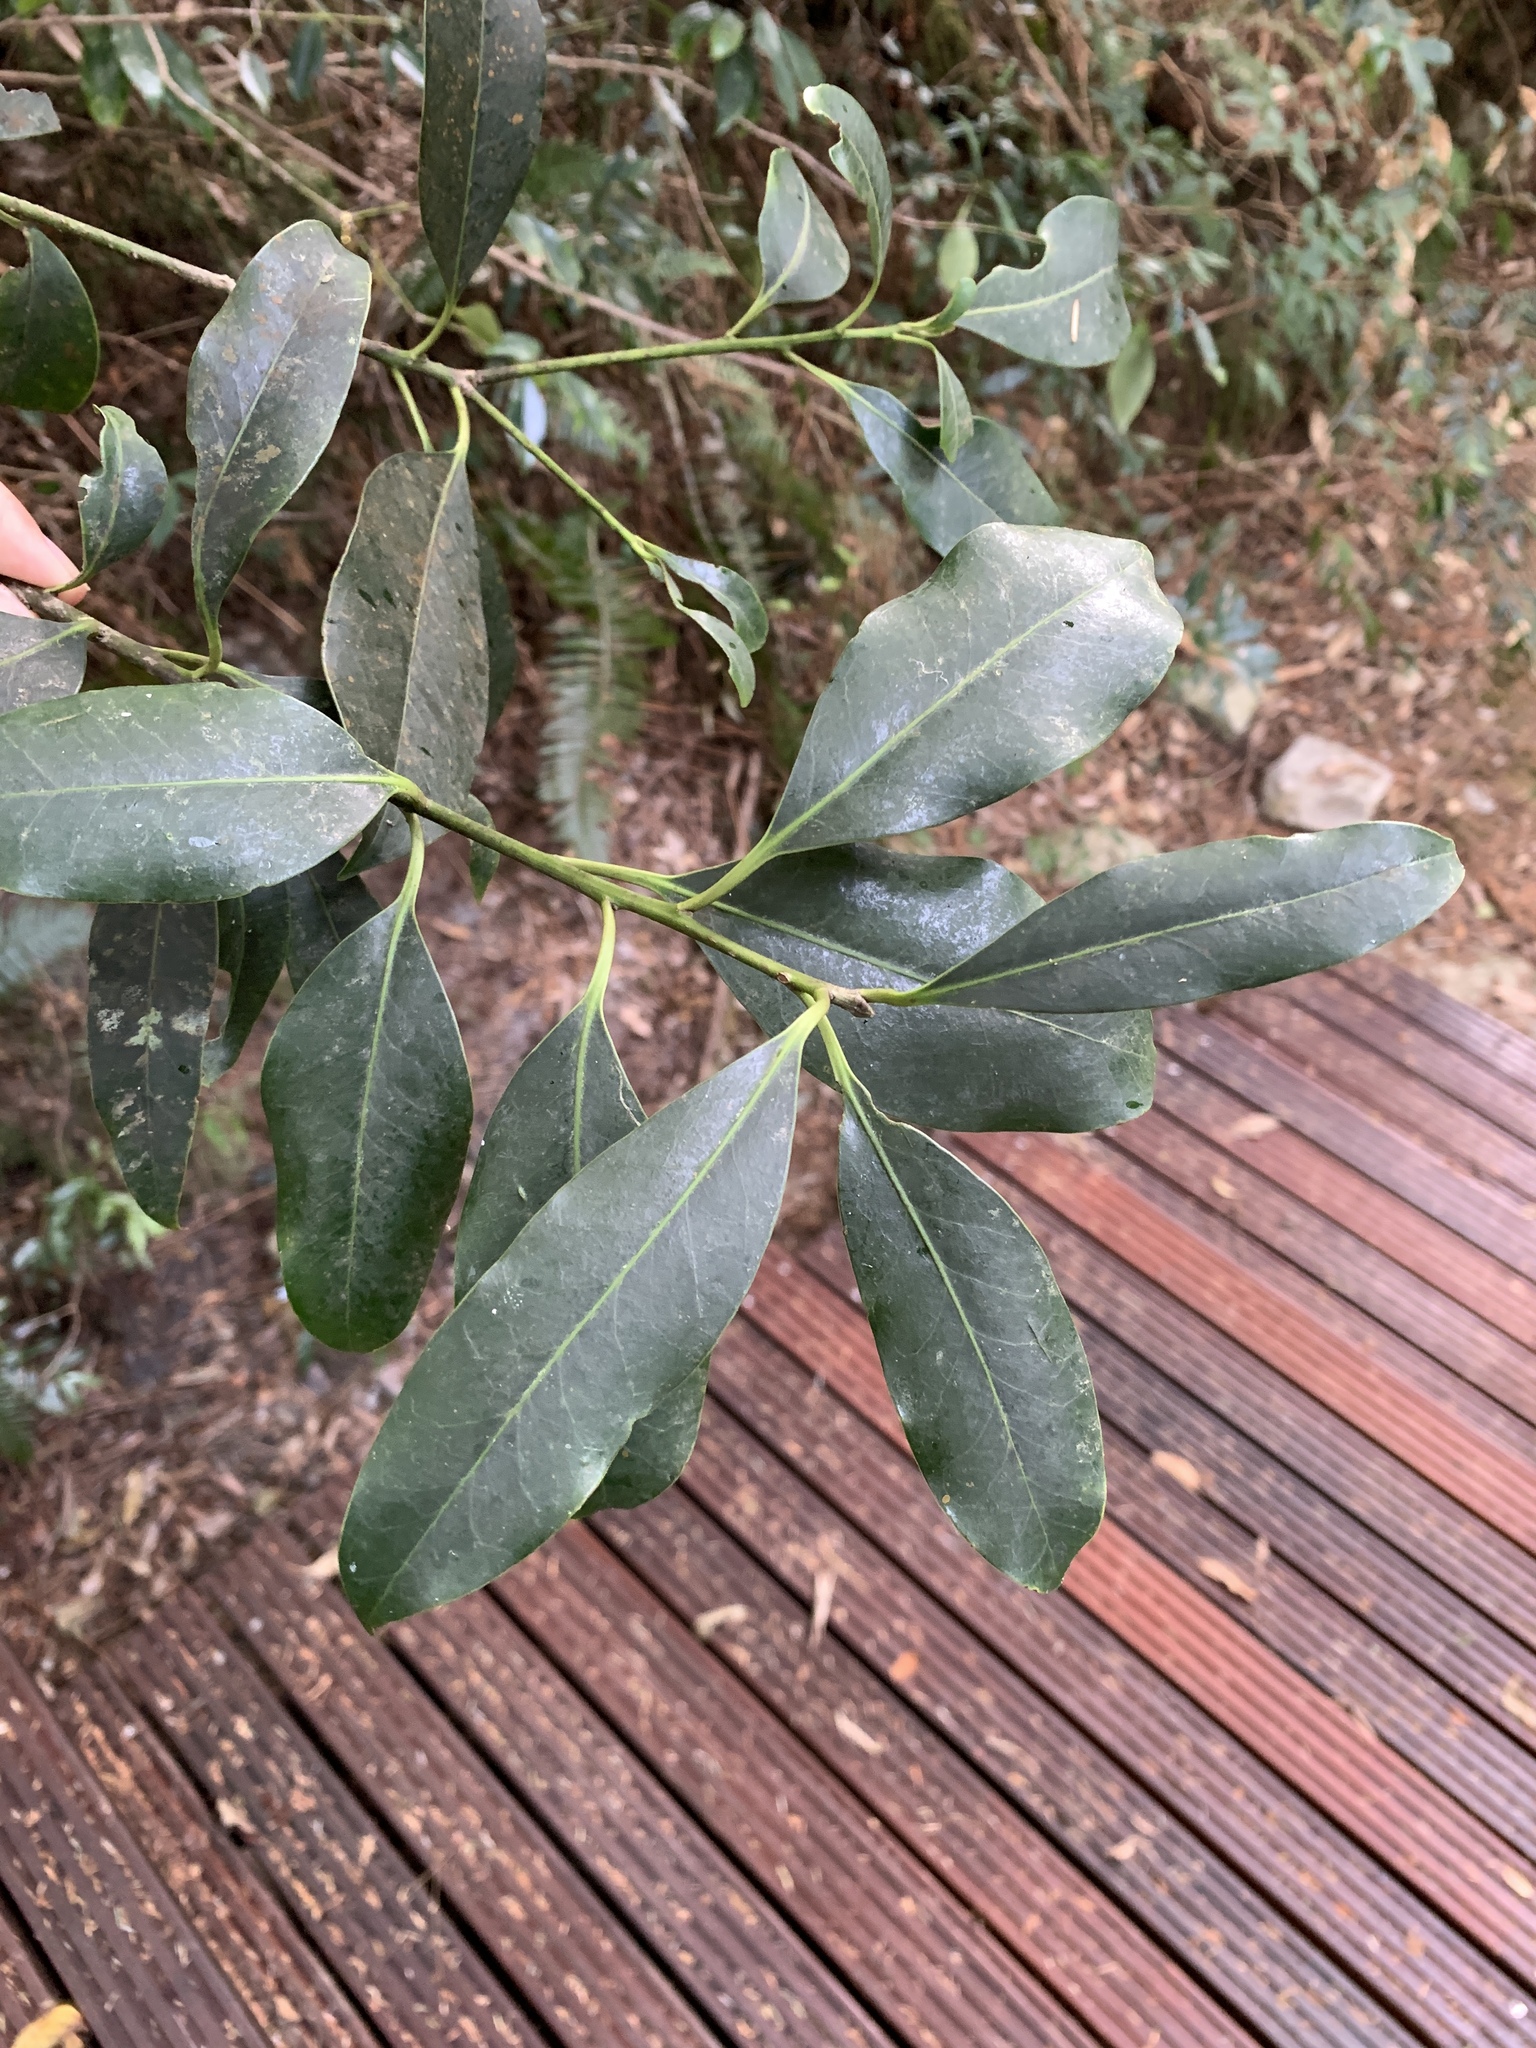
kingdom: Plantae
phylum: Tracheophyta
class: Magnoliopsida
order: Aquifoliales
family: Aquifoliaceae
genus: Ilex
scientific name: Ilex tugitakayamensis
